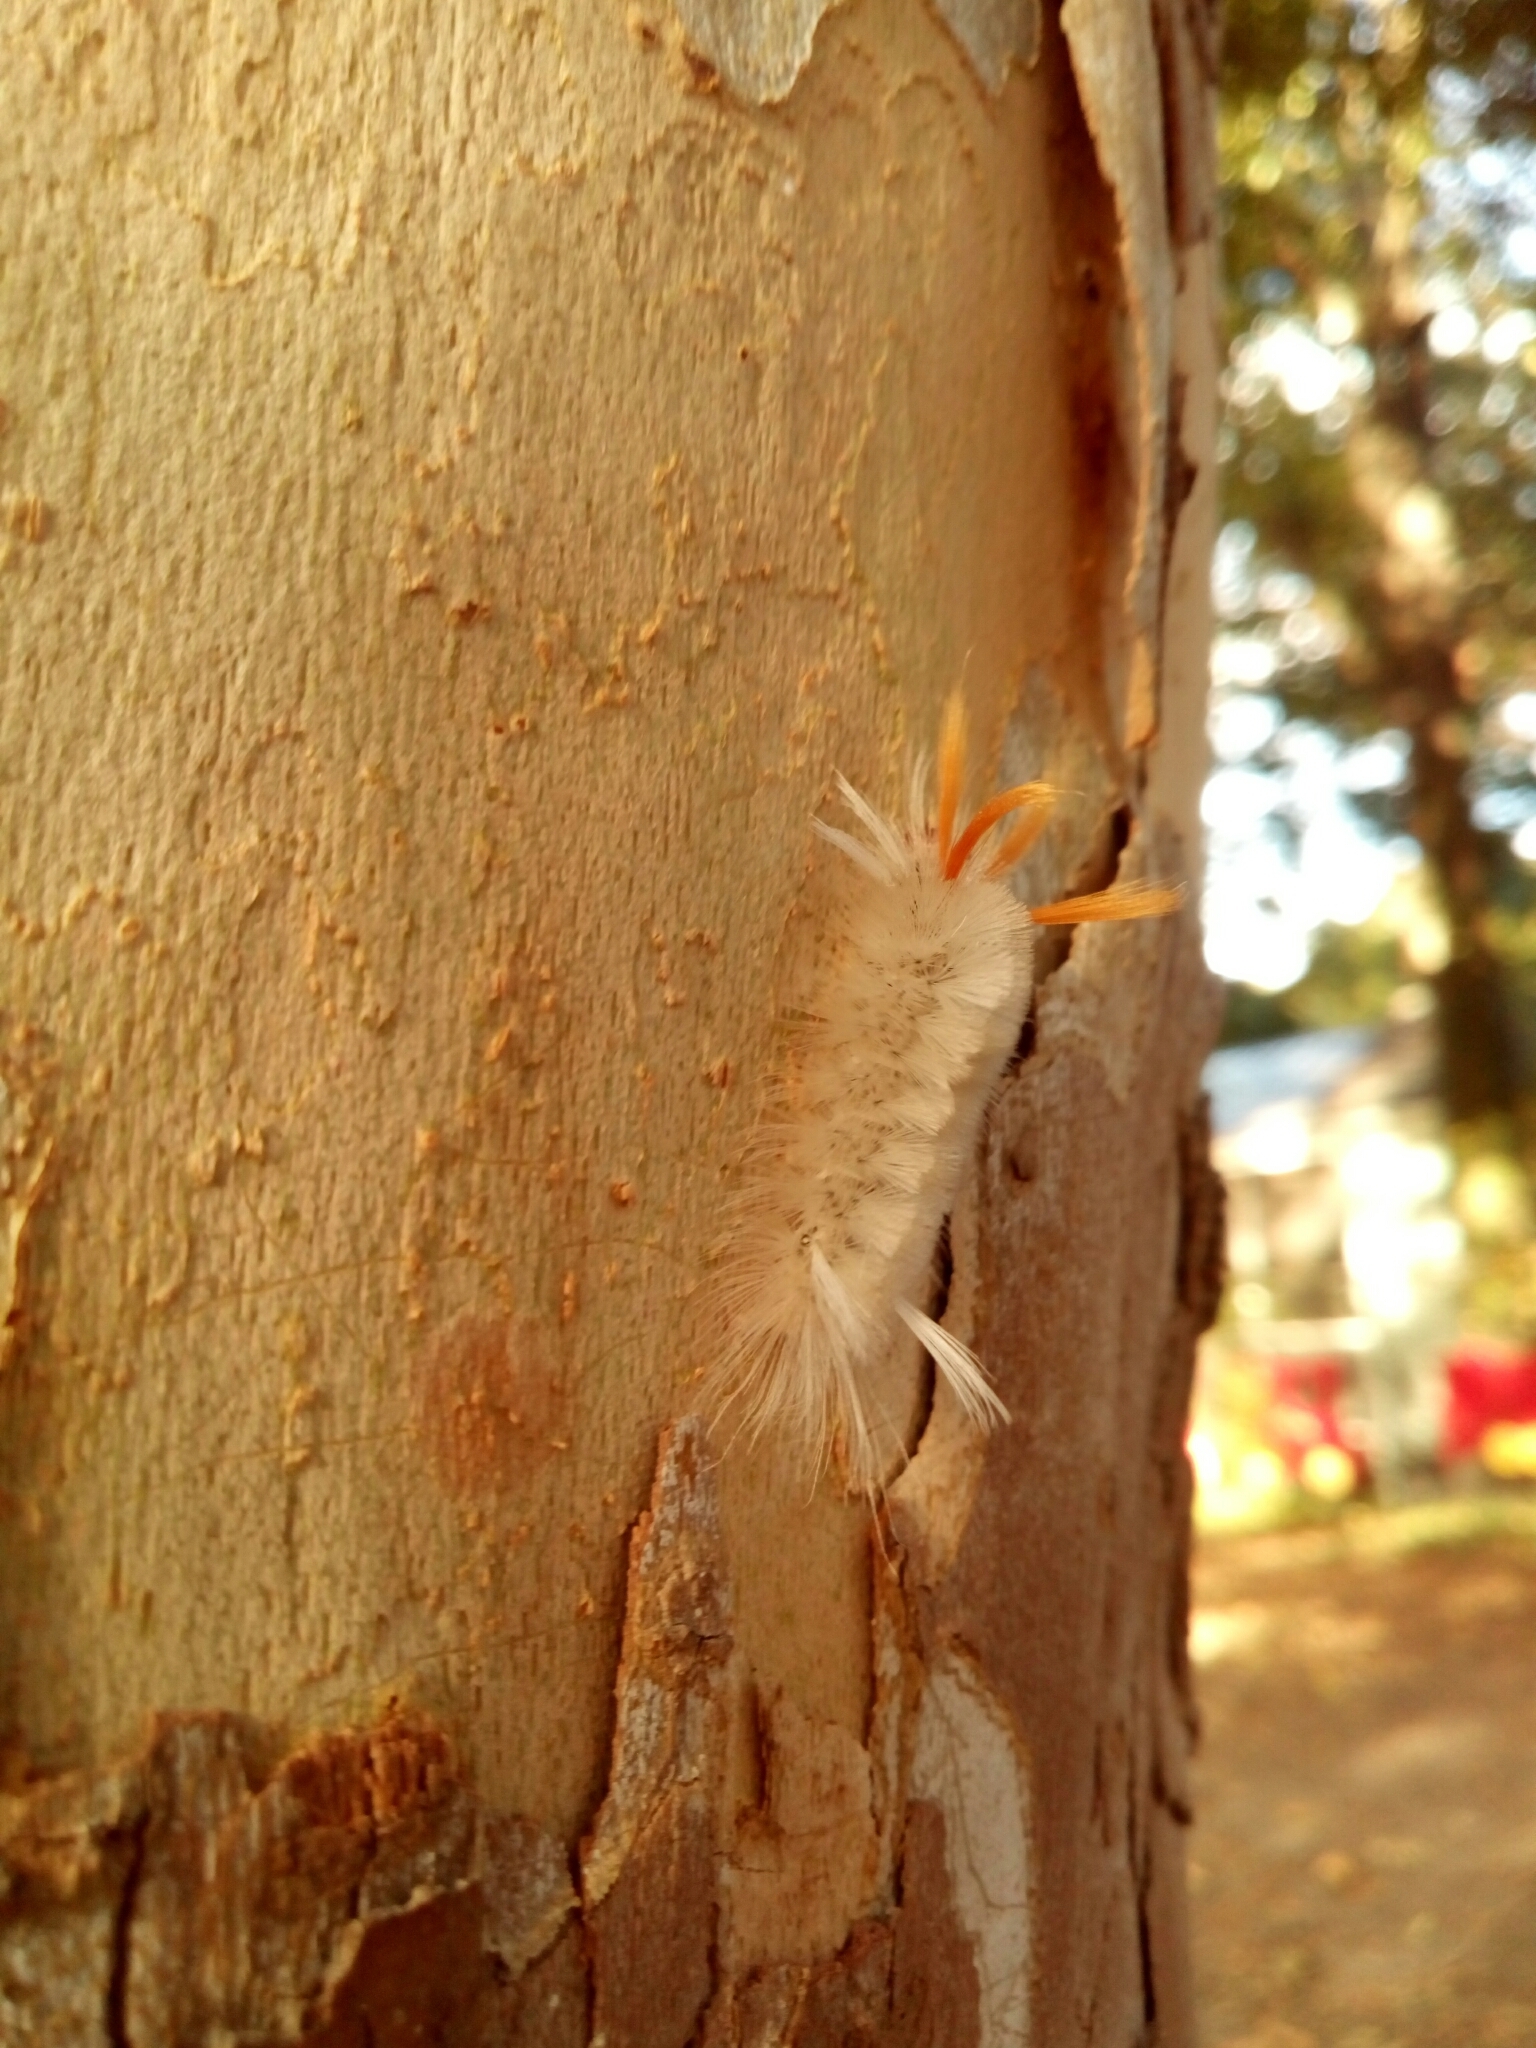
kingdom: Animalia
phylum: Arthropoda
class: Insecta
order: Lepidoptera
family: Erebidae
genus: Halysidota
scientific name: Halysidota harrisii
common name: Sycamore tussock moth
